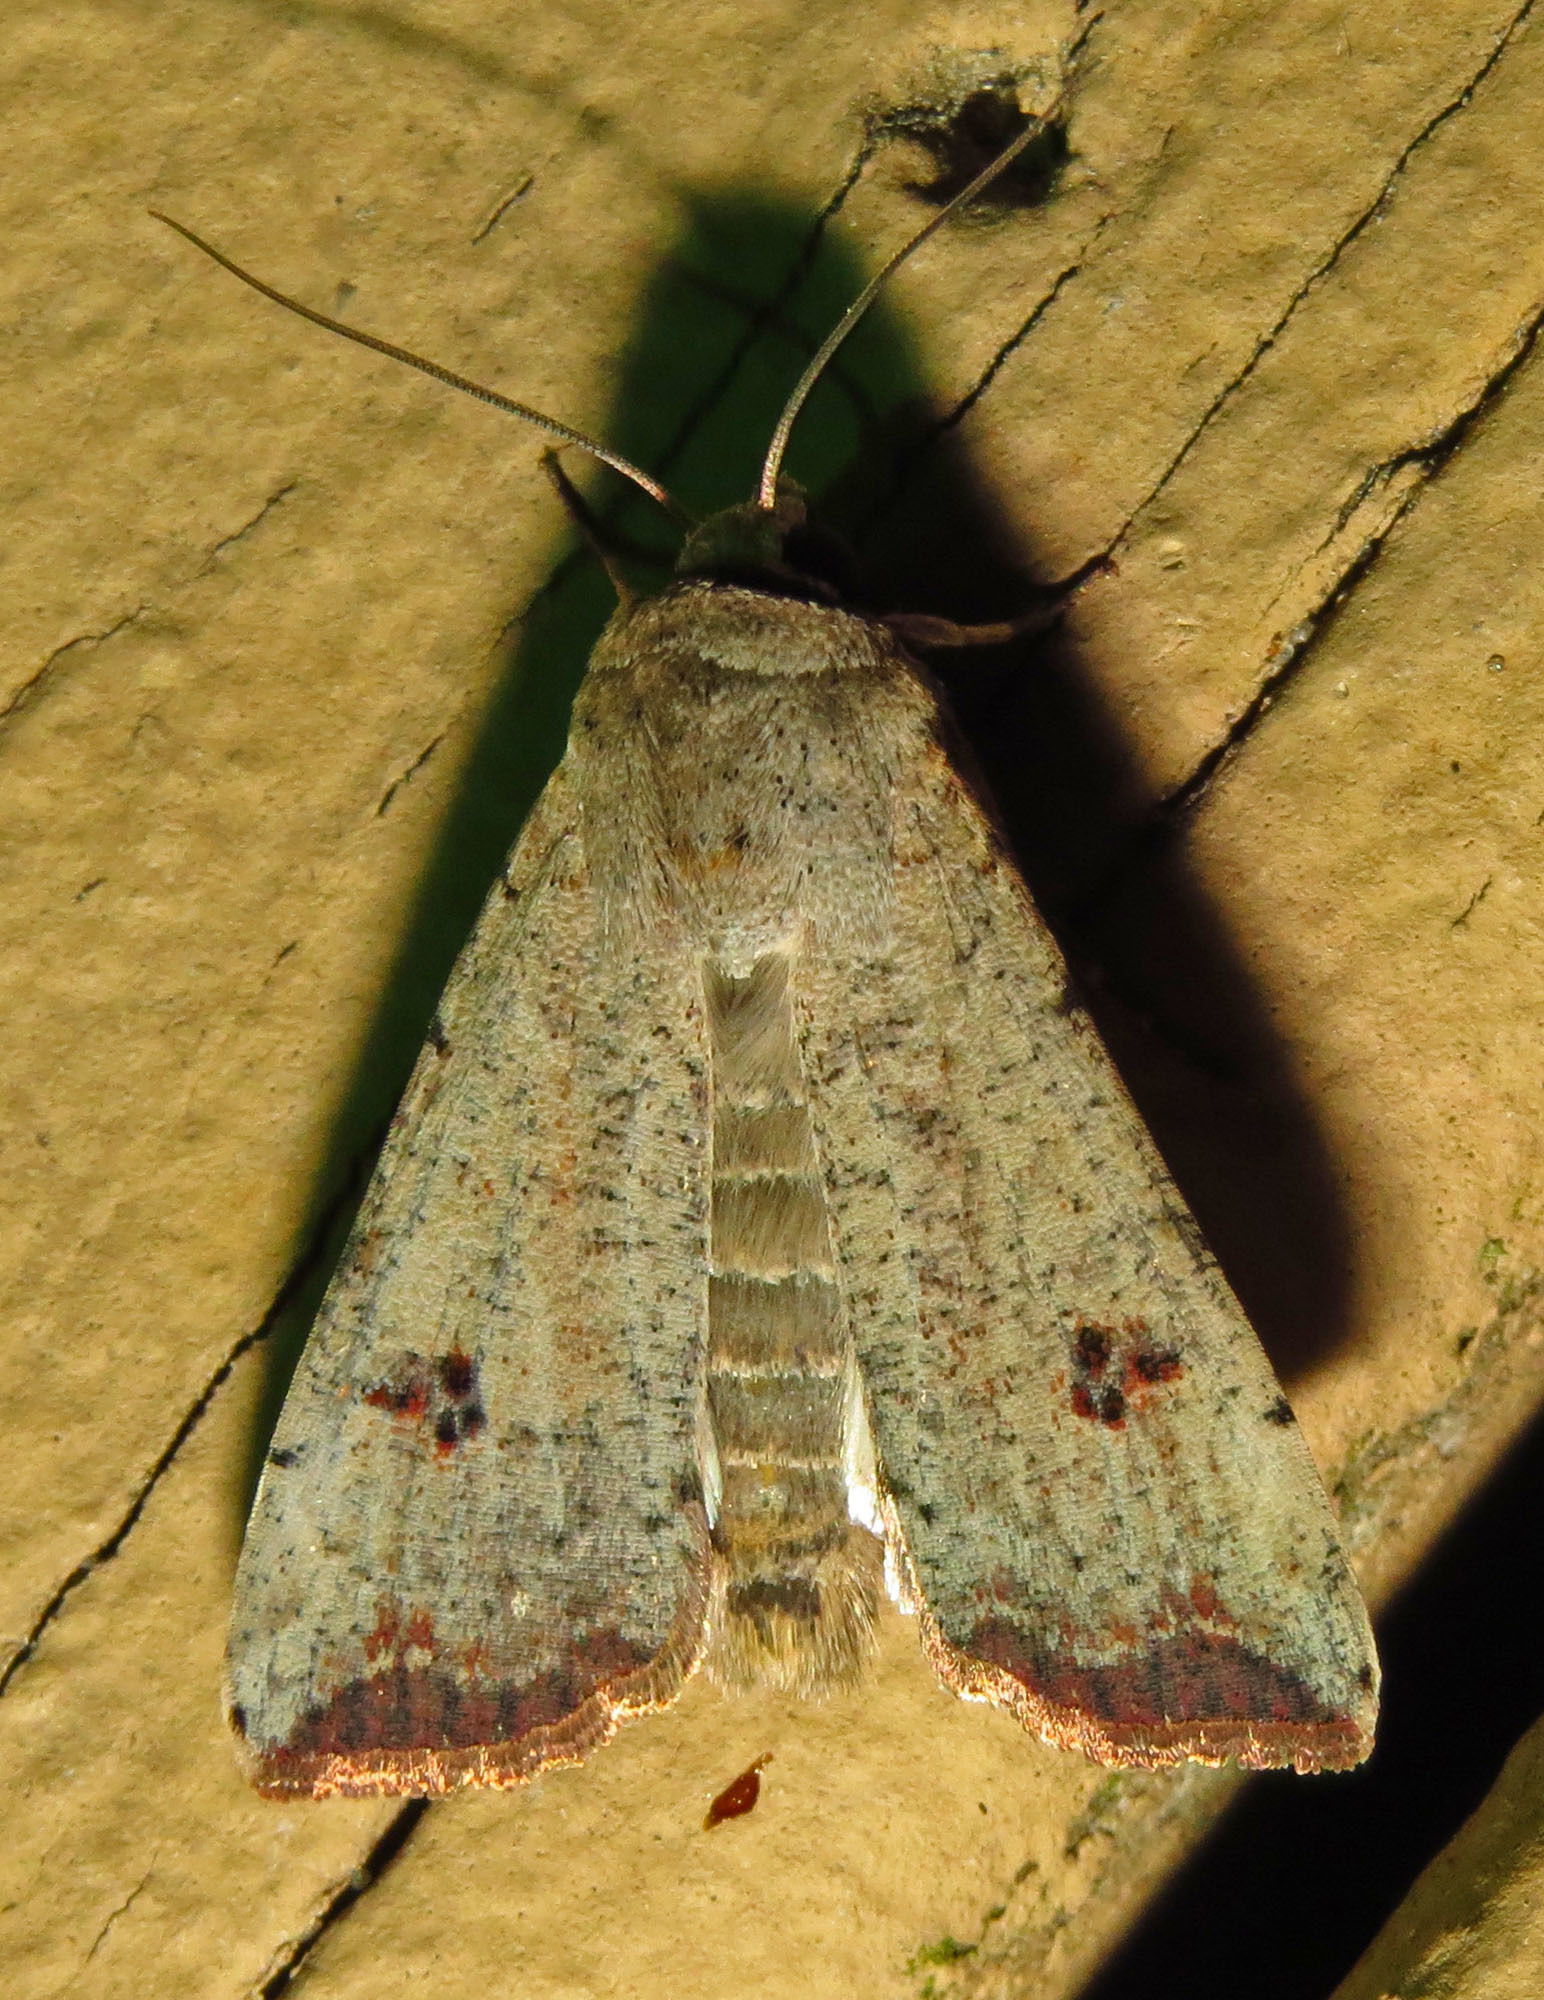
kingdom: Animalia
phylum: Arthropoda
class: Insecta
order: Lepidoptera
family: Noctuidae
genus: Anicla
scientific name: Anicla infecta
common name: Green cutworm
